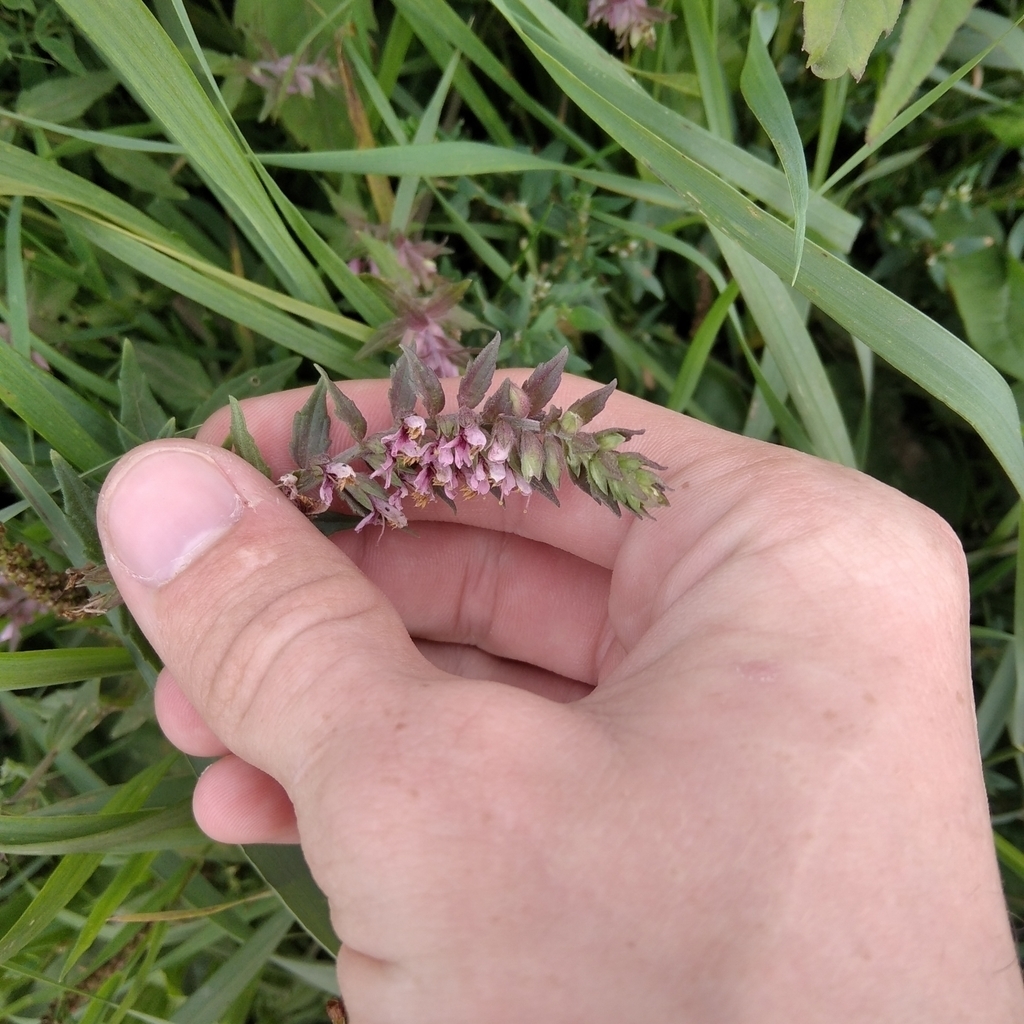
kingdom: Plantae
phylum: Tracheophyta
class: Magnoliopsida
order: Lamiales
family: Orobanchaceae
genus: Odontites
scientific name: Odontites vulgaris
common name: Broomrape
